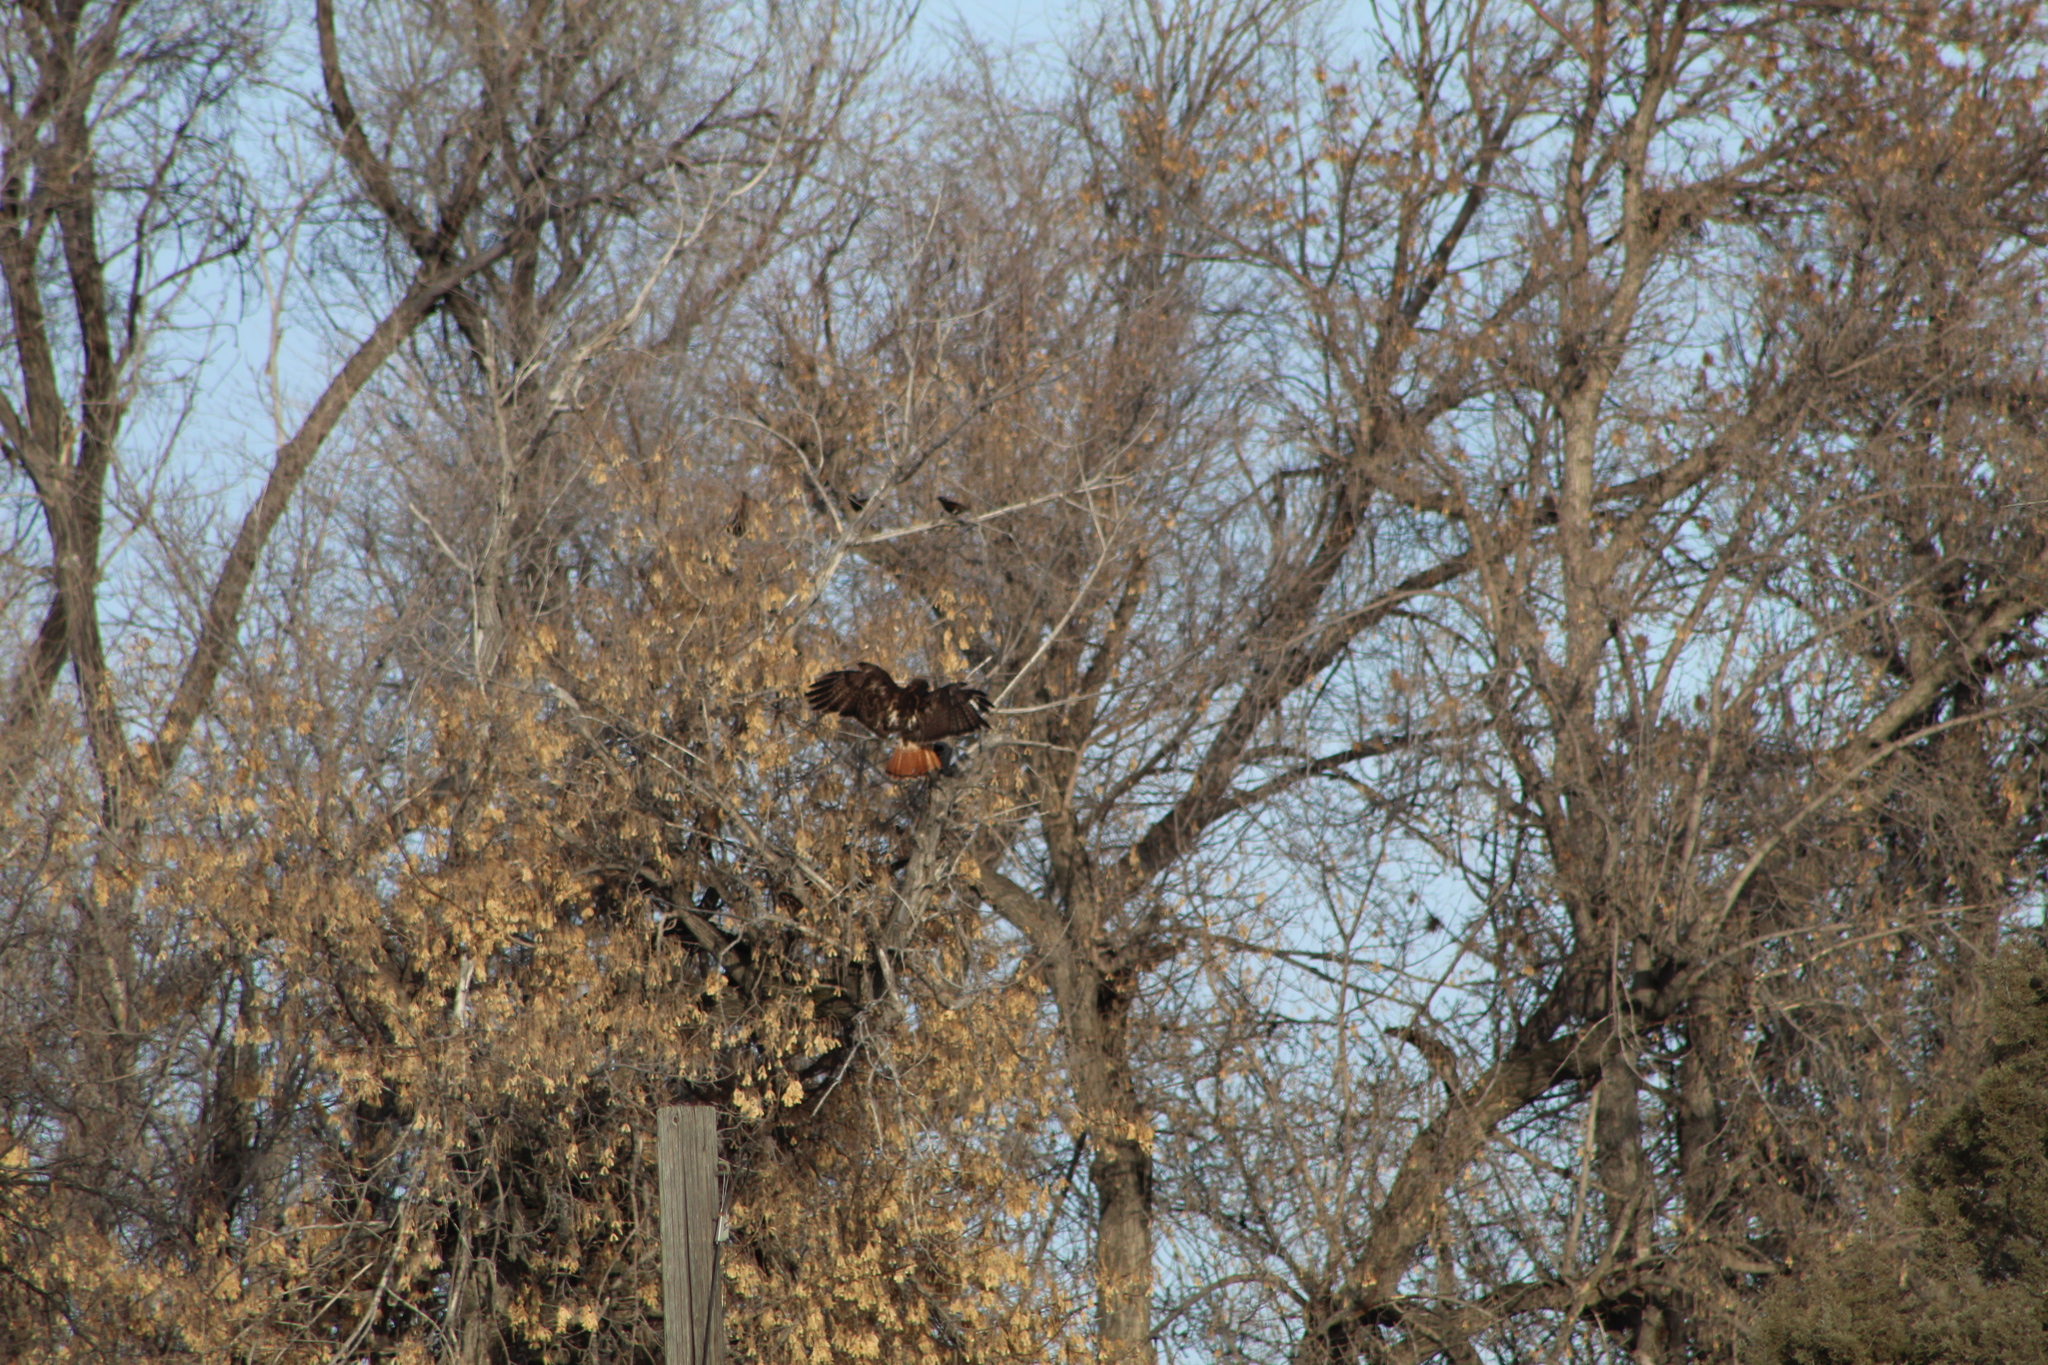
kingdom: Animalia
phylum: Chordata
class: Aves
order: Accipitriformes
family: Accipitridae
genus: Buteo
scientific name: Buteo jamaicensis
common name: Red-tailed hawk
